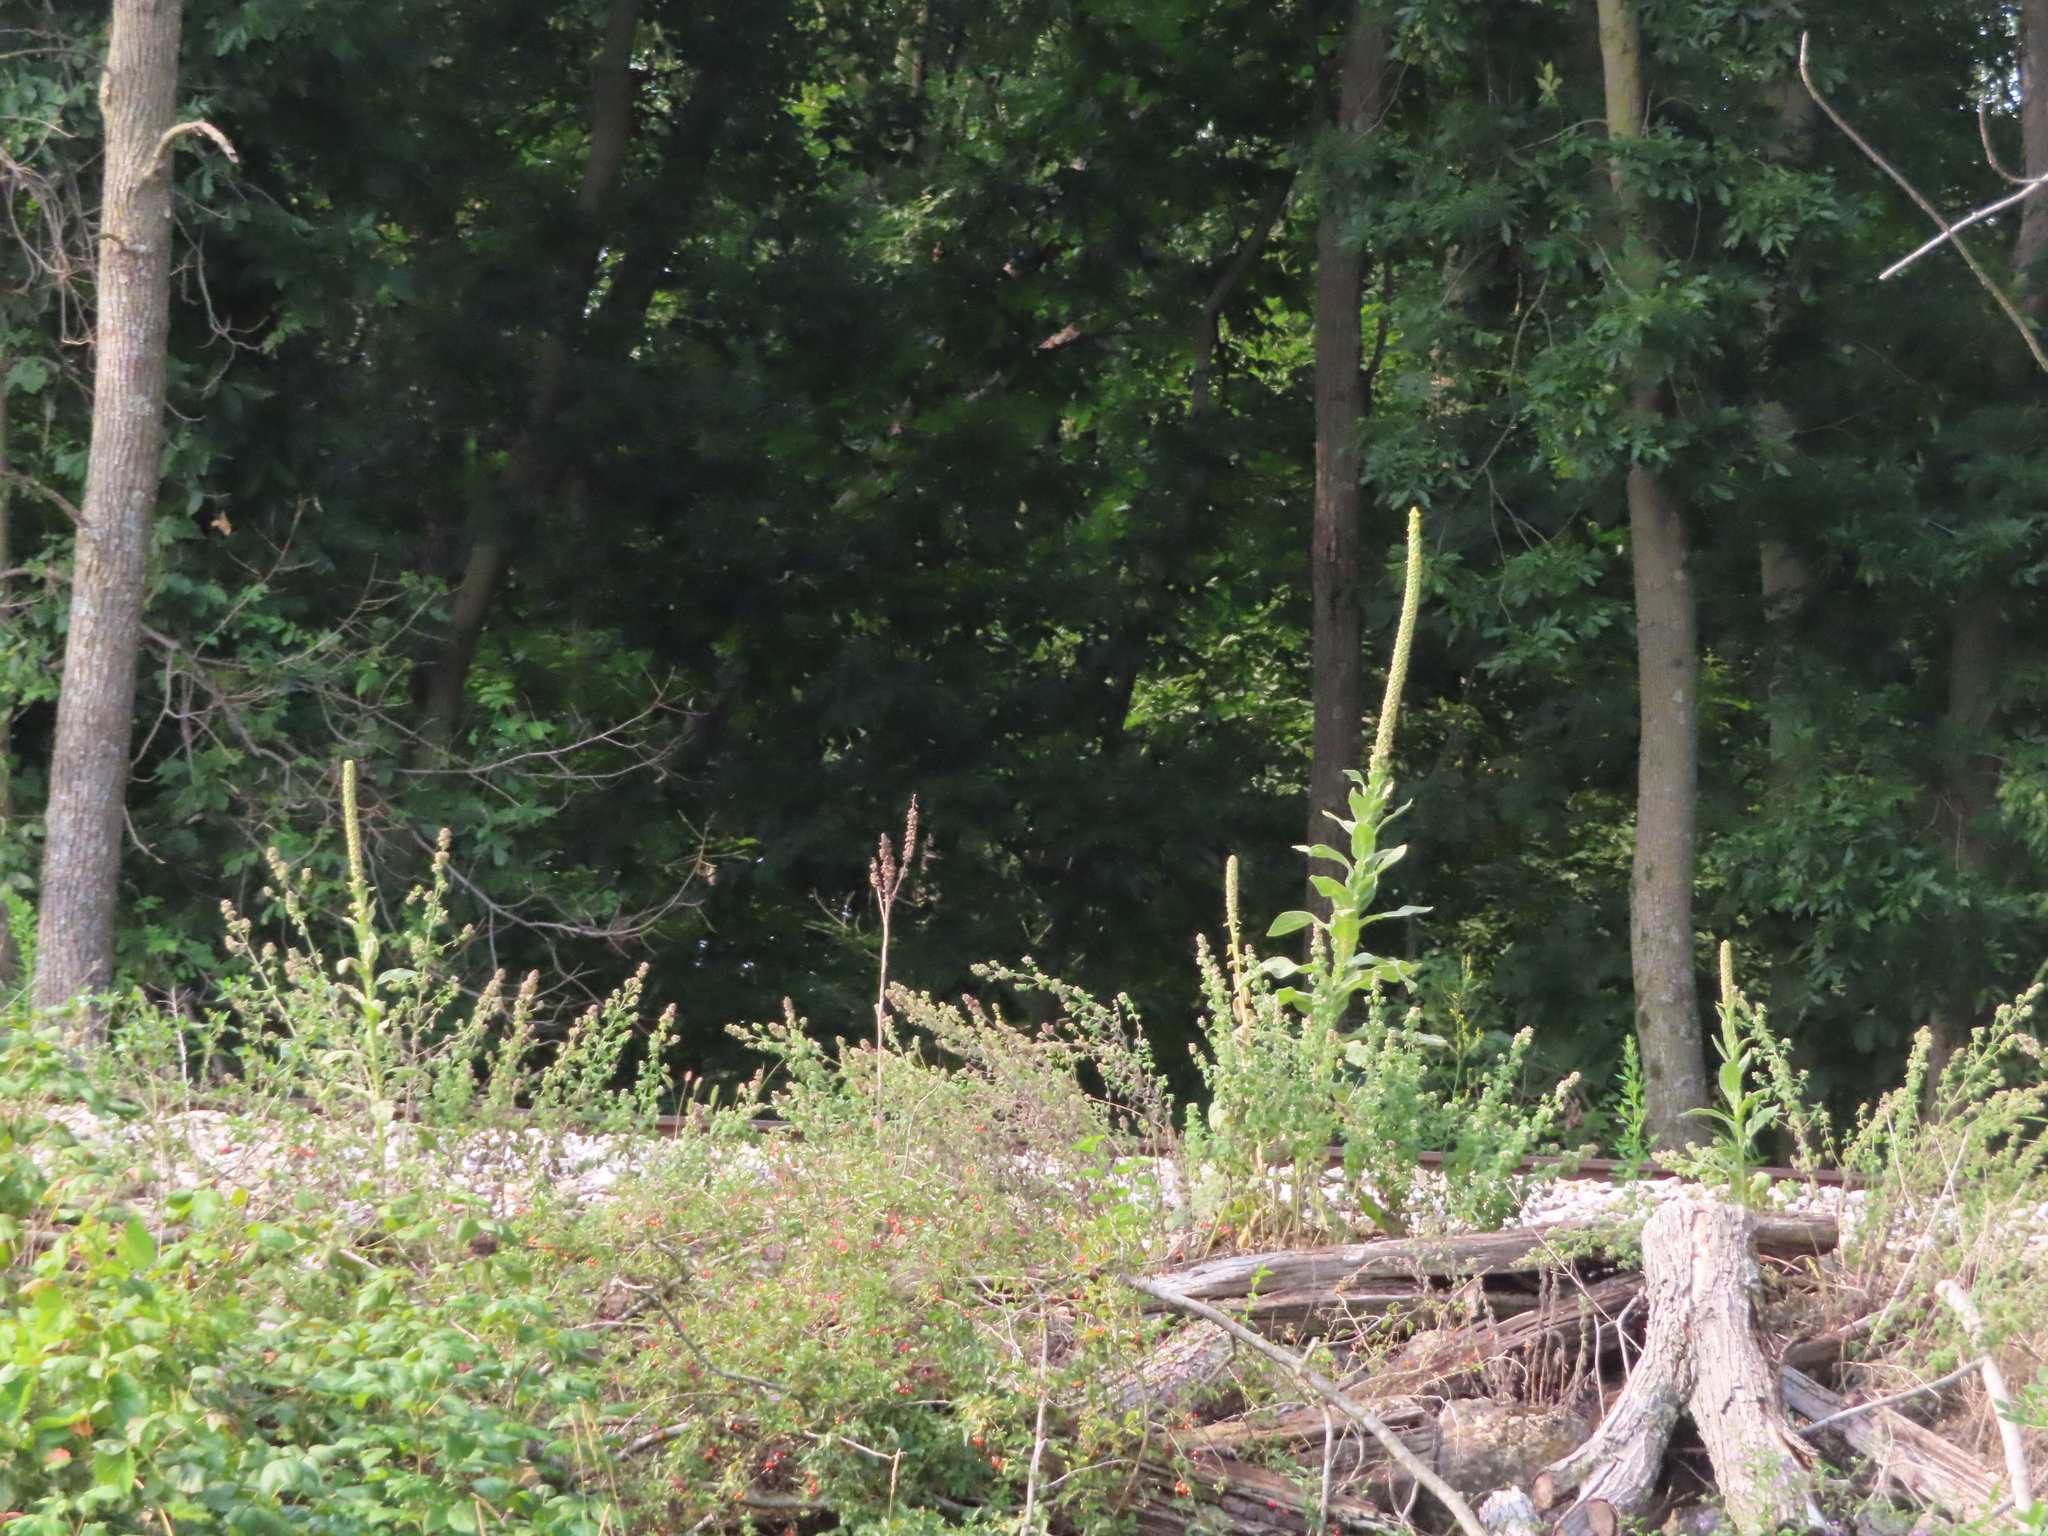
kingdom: Plantae
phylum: Tracheophyta
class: Magnoliopsida
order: Lamiales
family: Scrophulariaceae
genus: Verbascum
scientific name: Verbascum thapsus
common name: Common mullein
